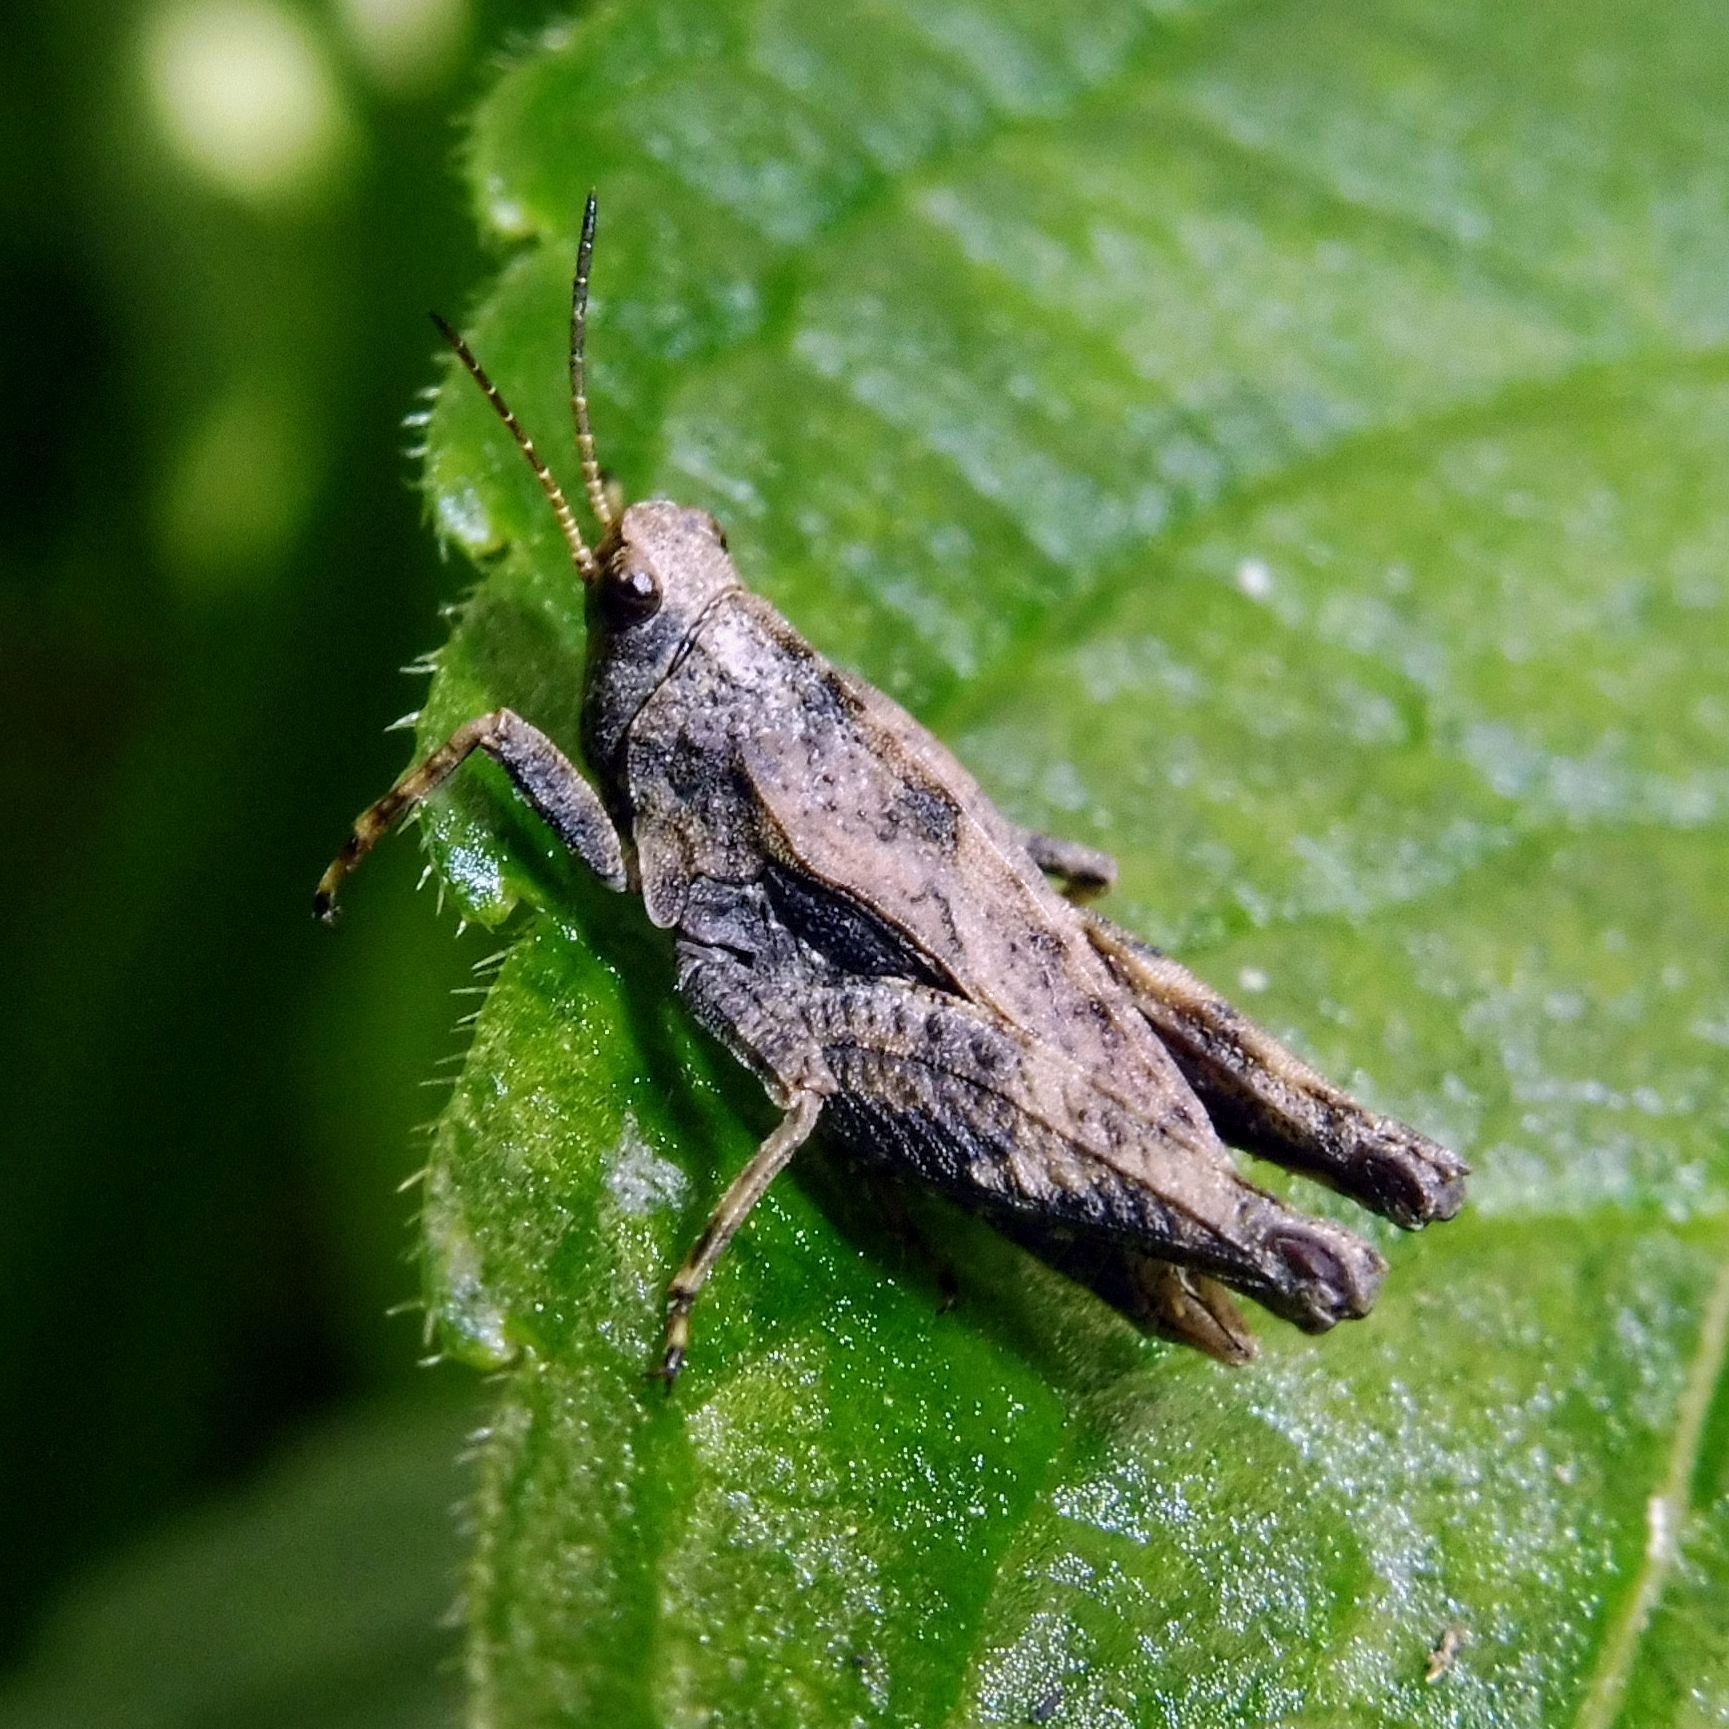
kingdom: Animalia
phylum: Arthropoda
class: Insecta
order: Orthoptera
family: Tetrigidae
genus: Tetrix
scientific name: Tetrix undulata
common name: Common groundhopper
